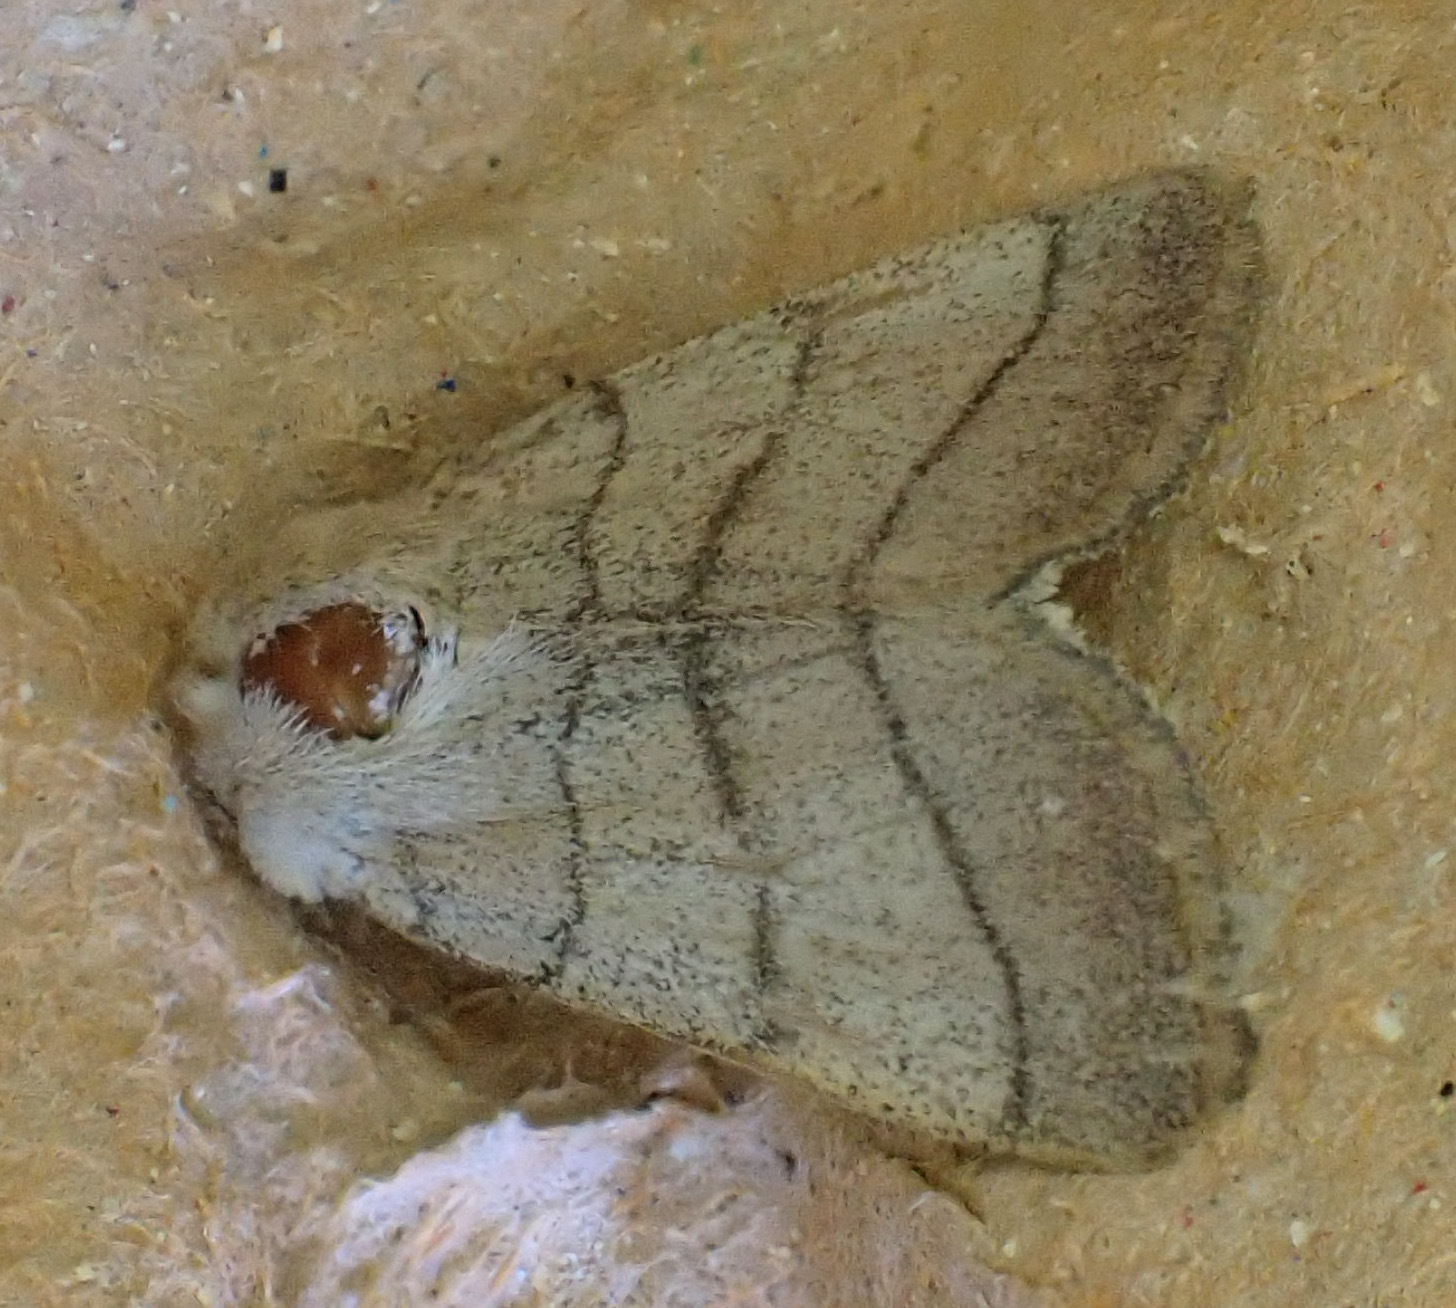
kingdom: Animalia
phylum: Arthropoda
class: Insecta
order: Lepidoptera
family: Noctuidae
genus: Charanyca
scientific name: Charanyca trigrammica
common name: Treble lines
